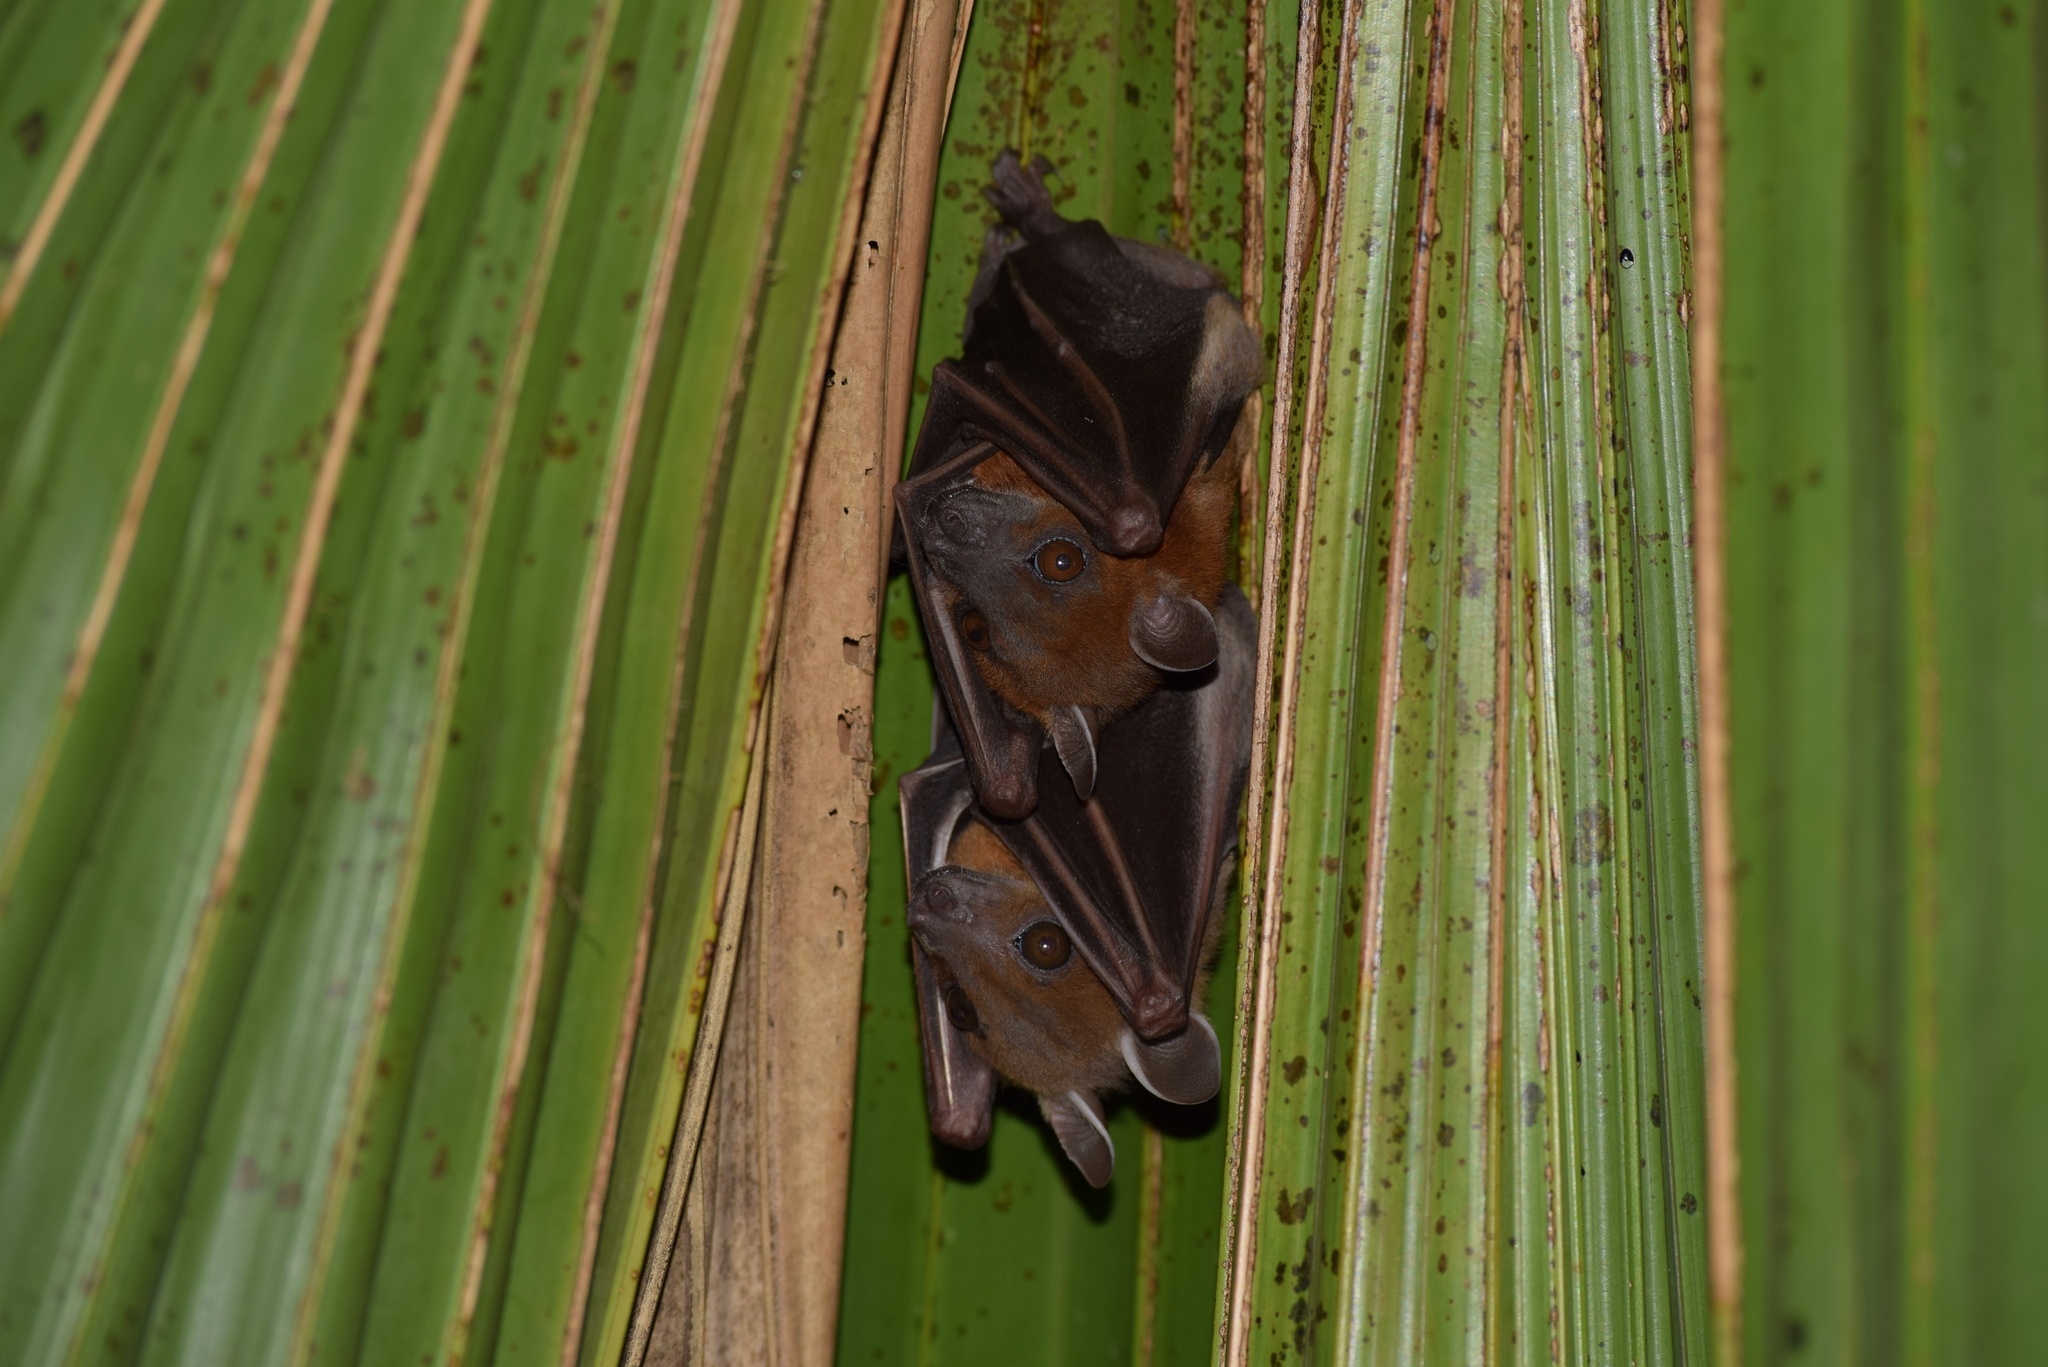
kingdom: Animalia
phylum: Chordata
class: Mammalia
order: Chiroptera
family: Pteropodidae
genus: Cynopterus
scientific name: Cynopterus sphinx
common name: Greater short-nosed fruit bat
